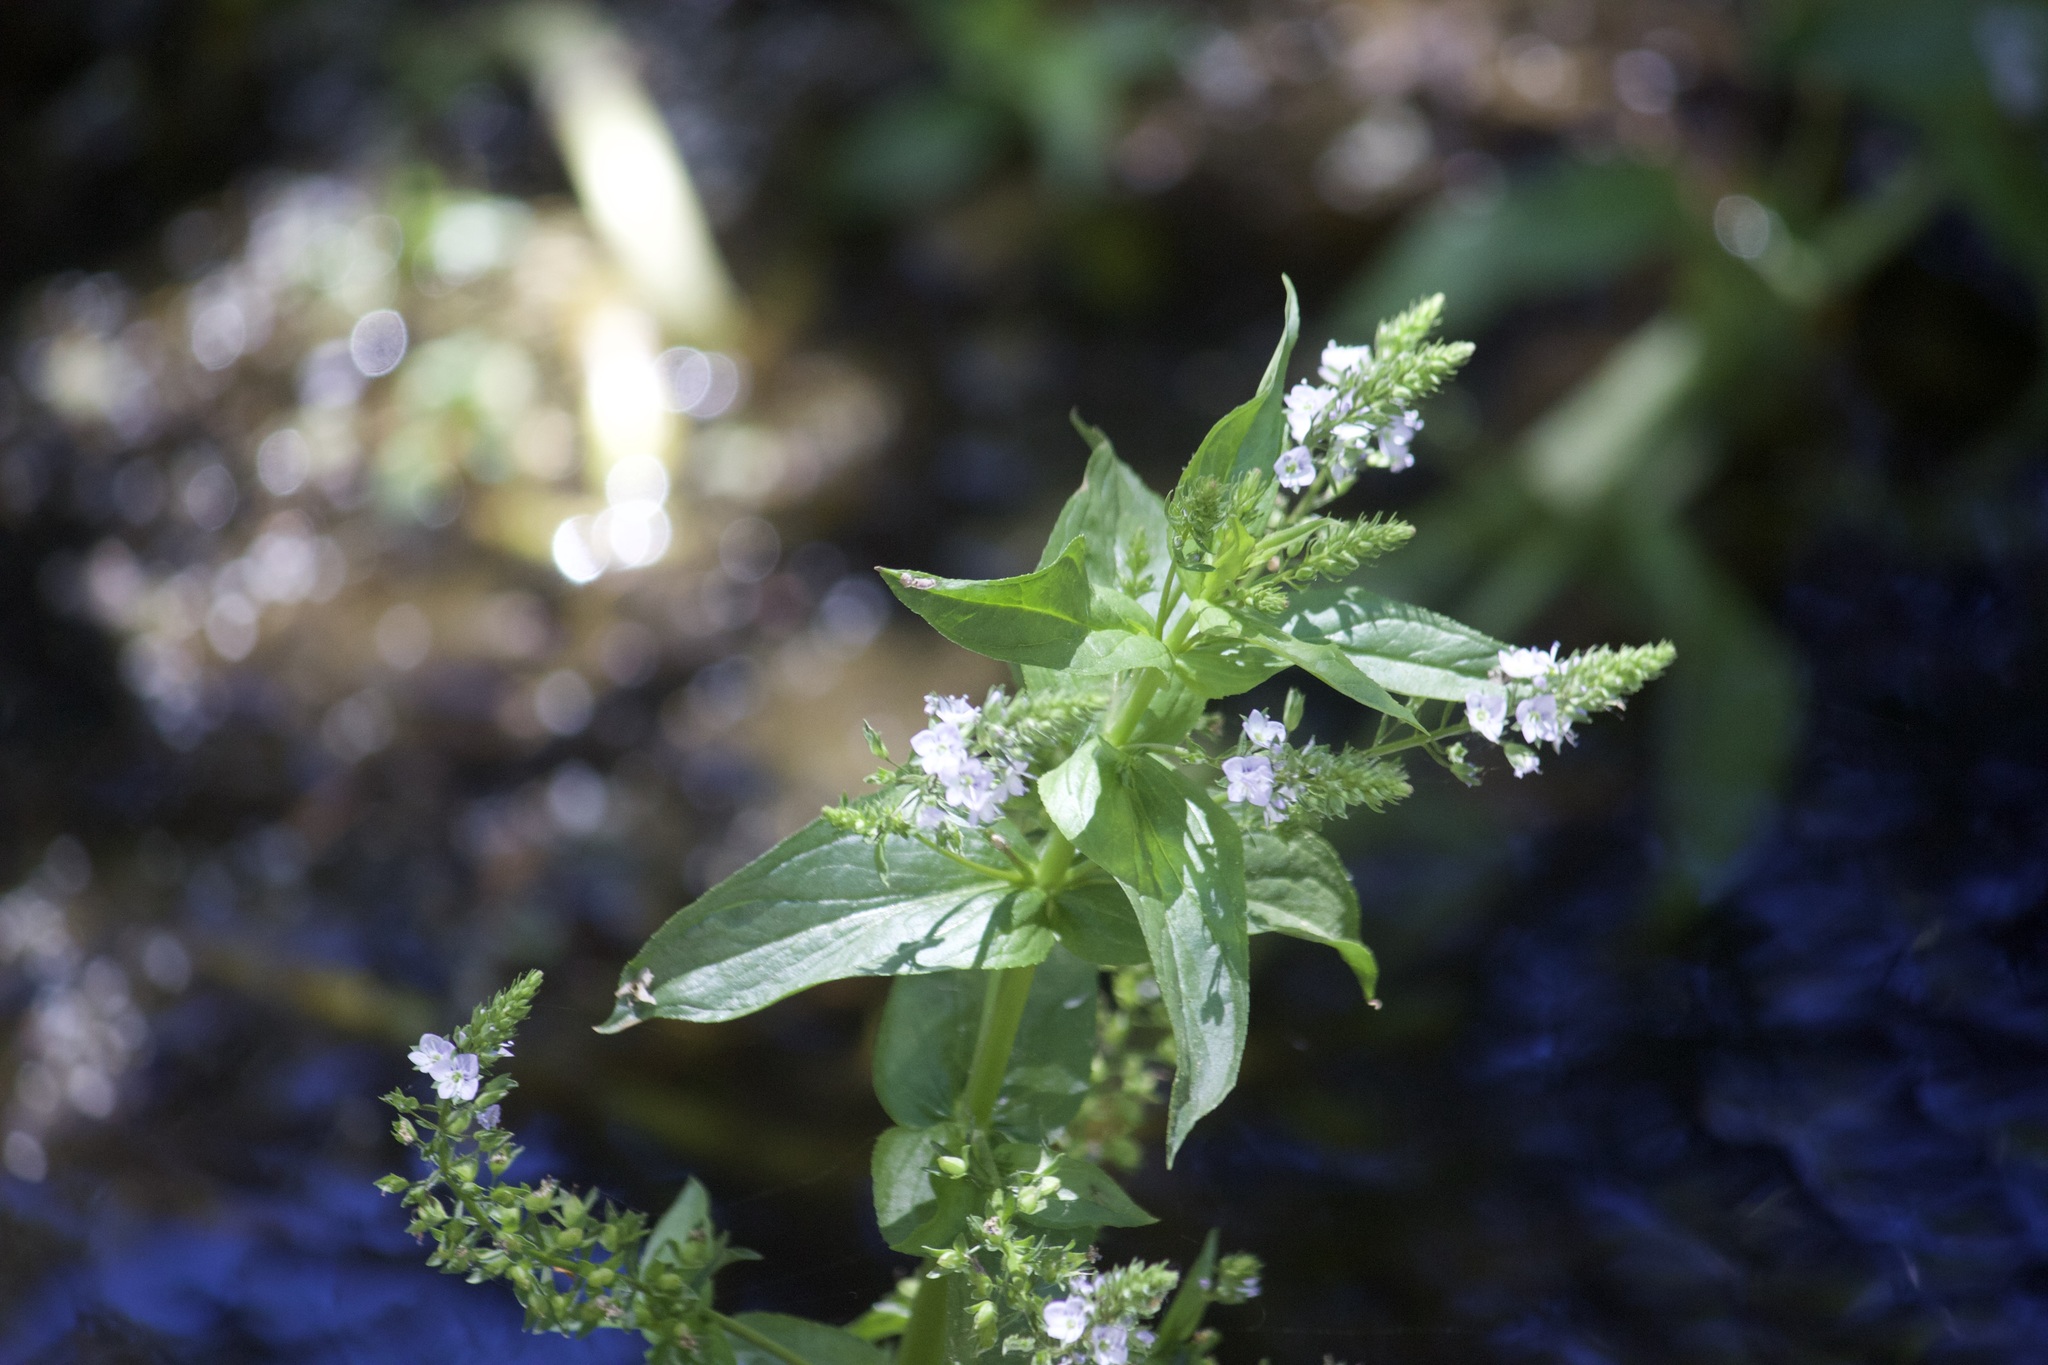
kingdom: Plantae
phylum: Tracheophyta
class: Magnoliopsida
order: Lamiales
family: Plantaginaceae
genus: Veronica
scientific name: Veronica anagallis-aquatica
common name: Water speedwell
